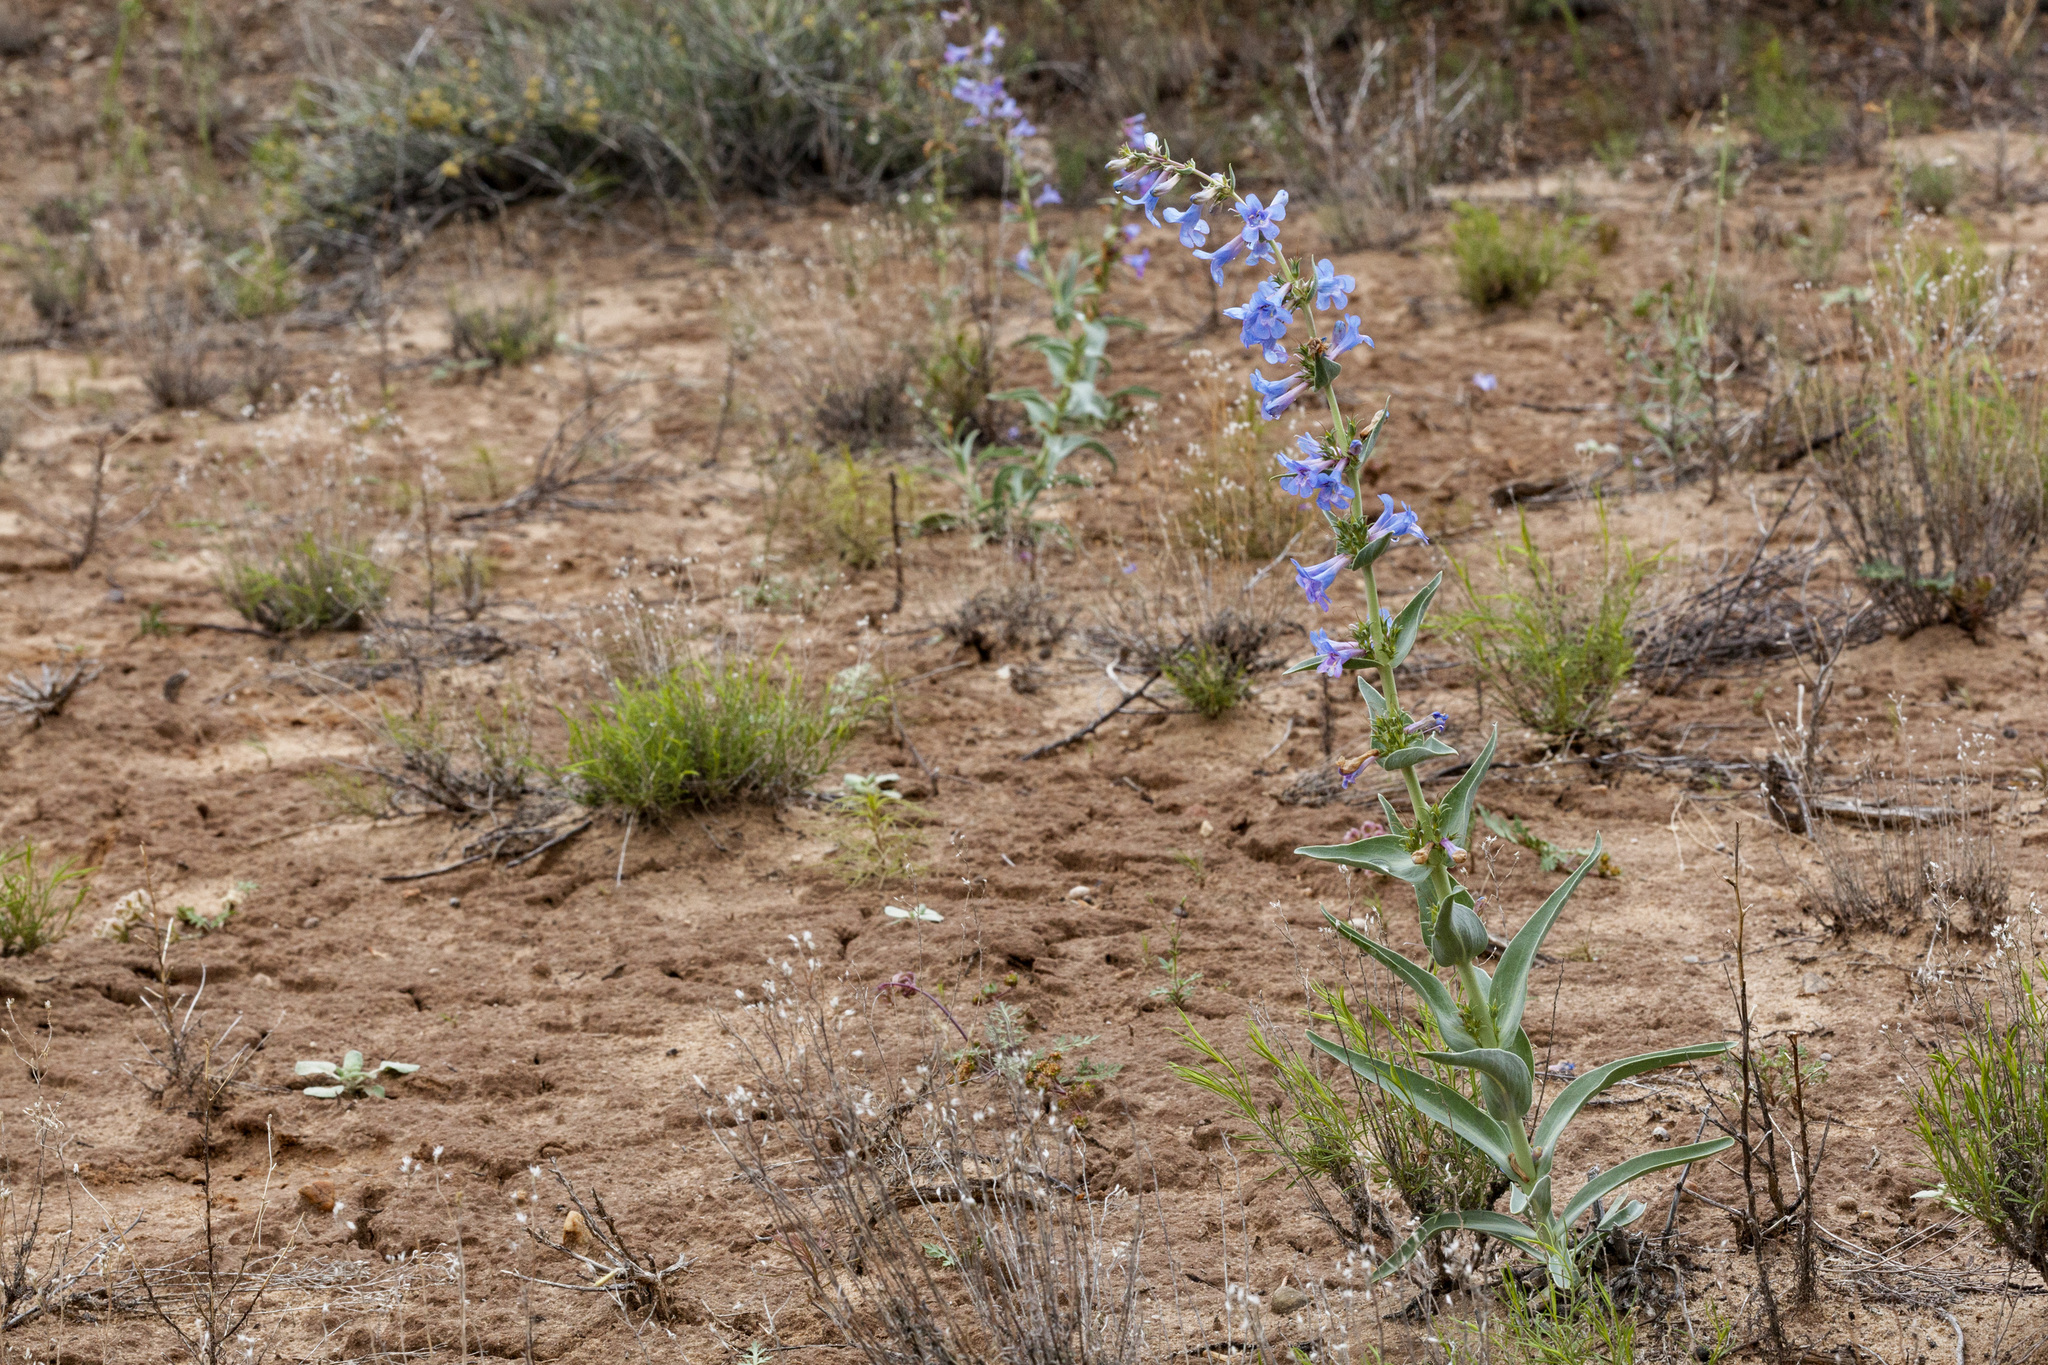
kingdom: Plantae
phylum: Tracheophyta
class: Magnoliopsida
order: Lamiales
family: Plantaginaceae
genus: Penstemon
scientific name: Penstemon angustifolius
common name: Narrow beardtongue
